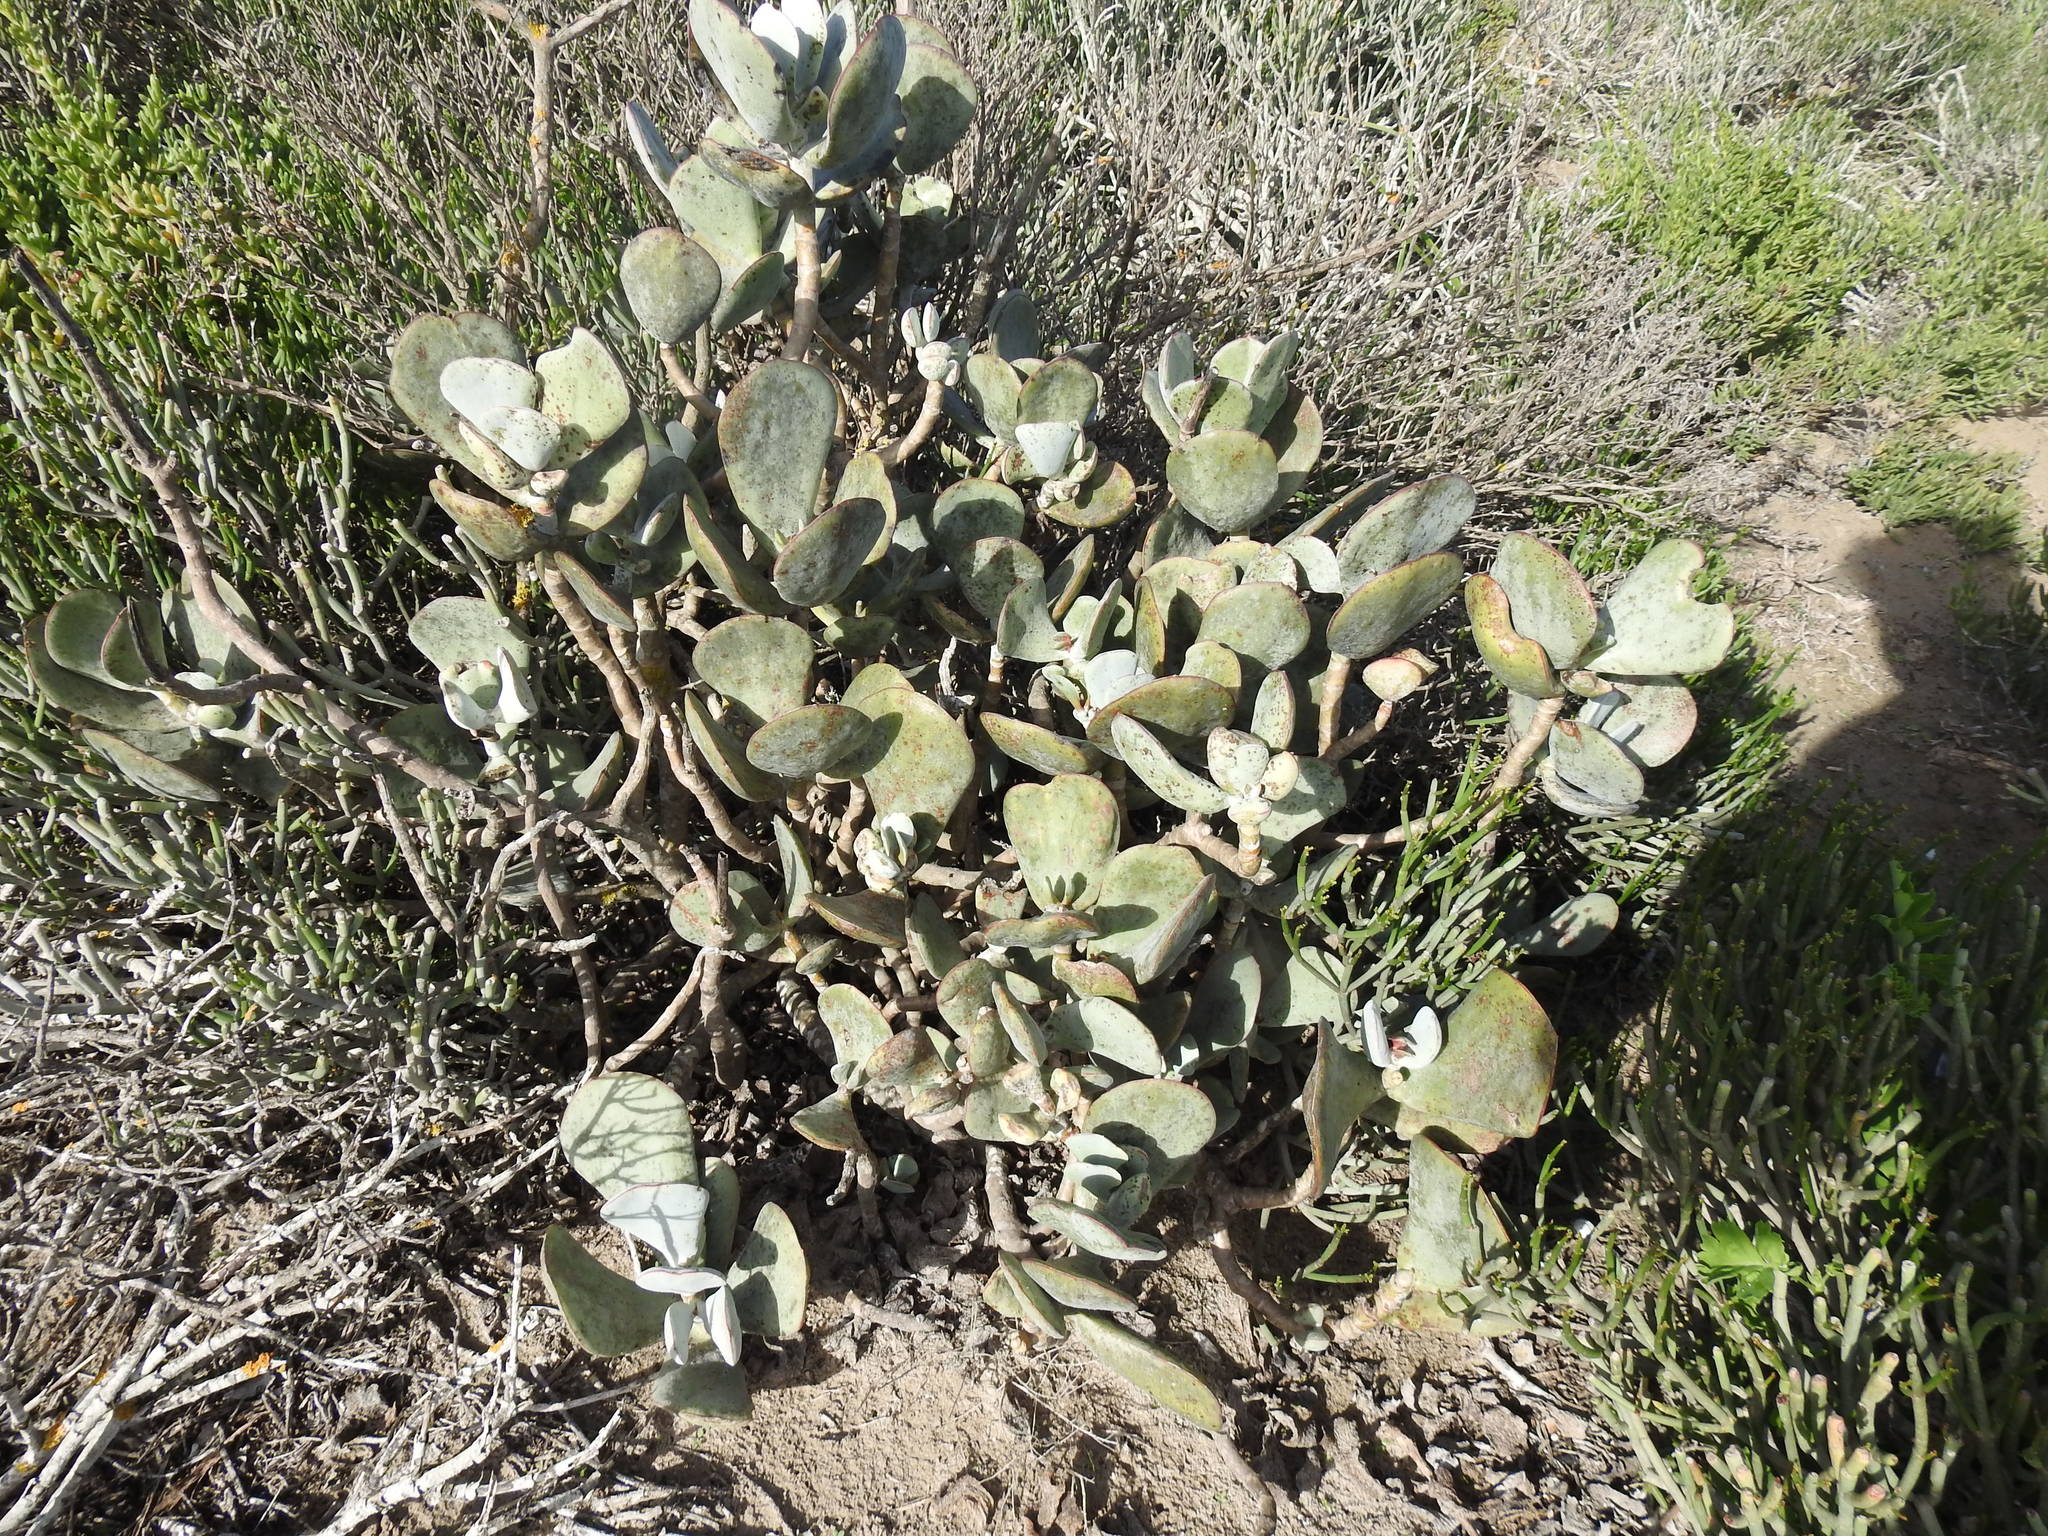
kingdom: Plantae
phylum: Tracheophyta
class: Magnoliopsida
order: Saxifragales
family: Crassulaceae
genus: Cotyledon
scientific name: Cotyledon orbiculata
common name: Pig's ear
